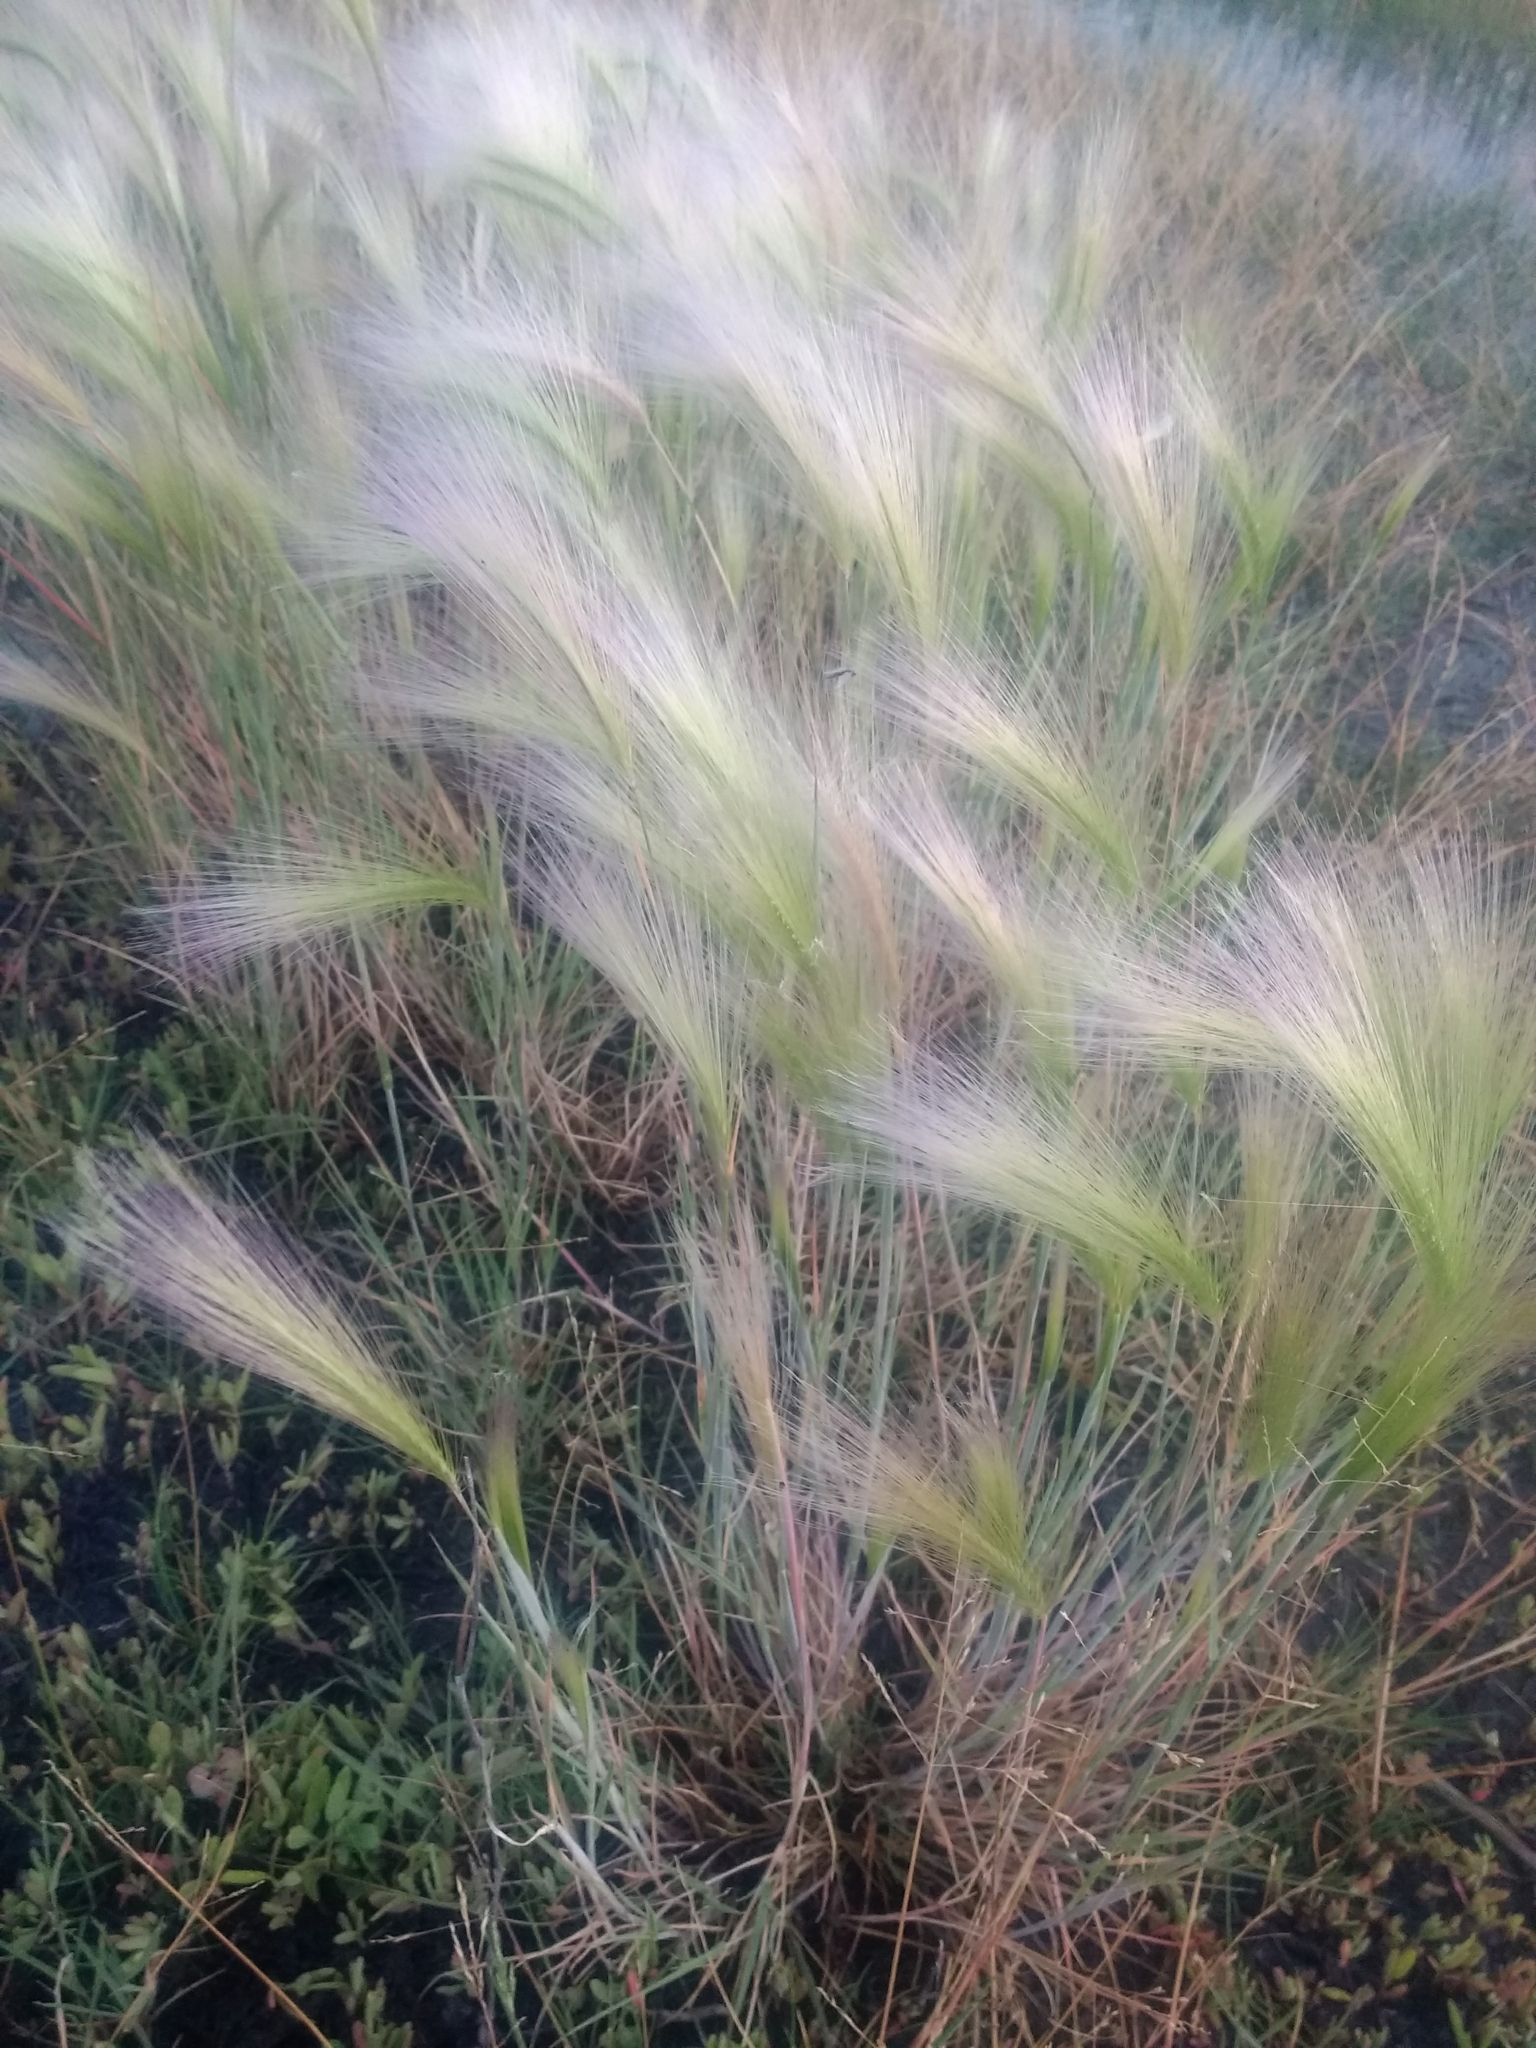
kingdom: Plantae
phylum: Tracheophyta
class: Liliopsida
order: Poales
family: Poaceae
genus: Hordeum
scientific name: Hordeum jubatum
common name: Foxtail barley
